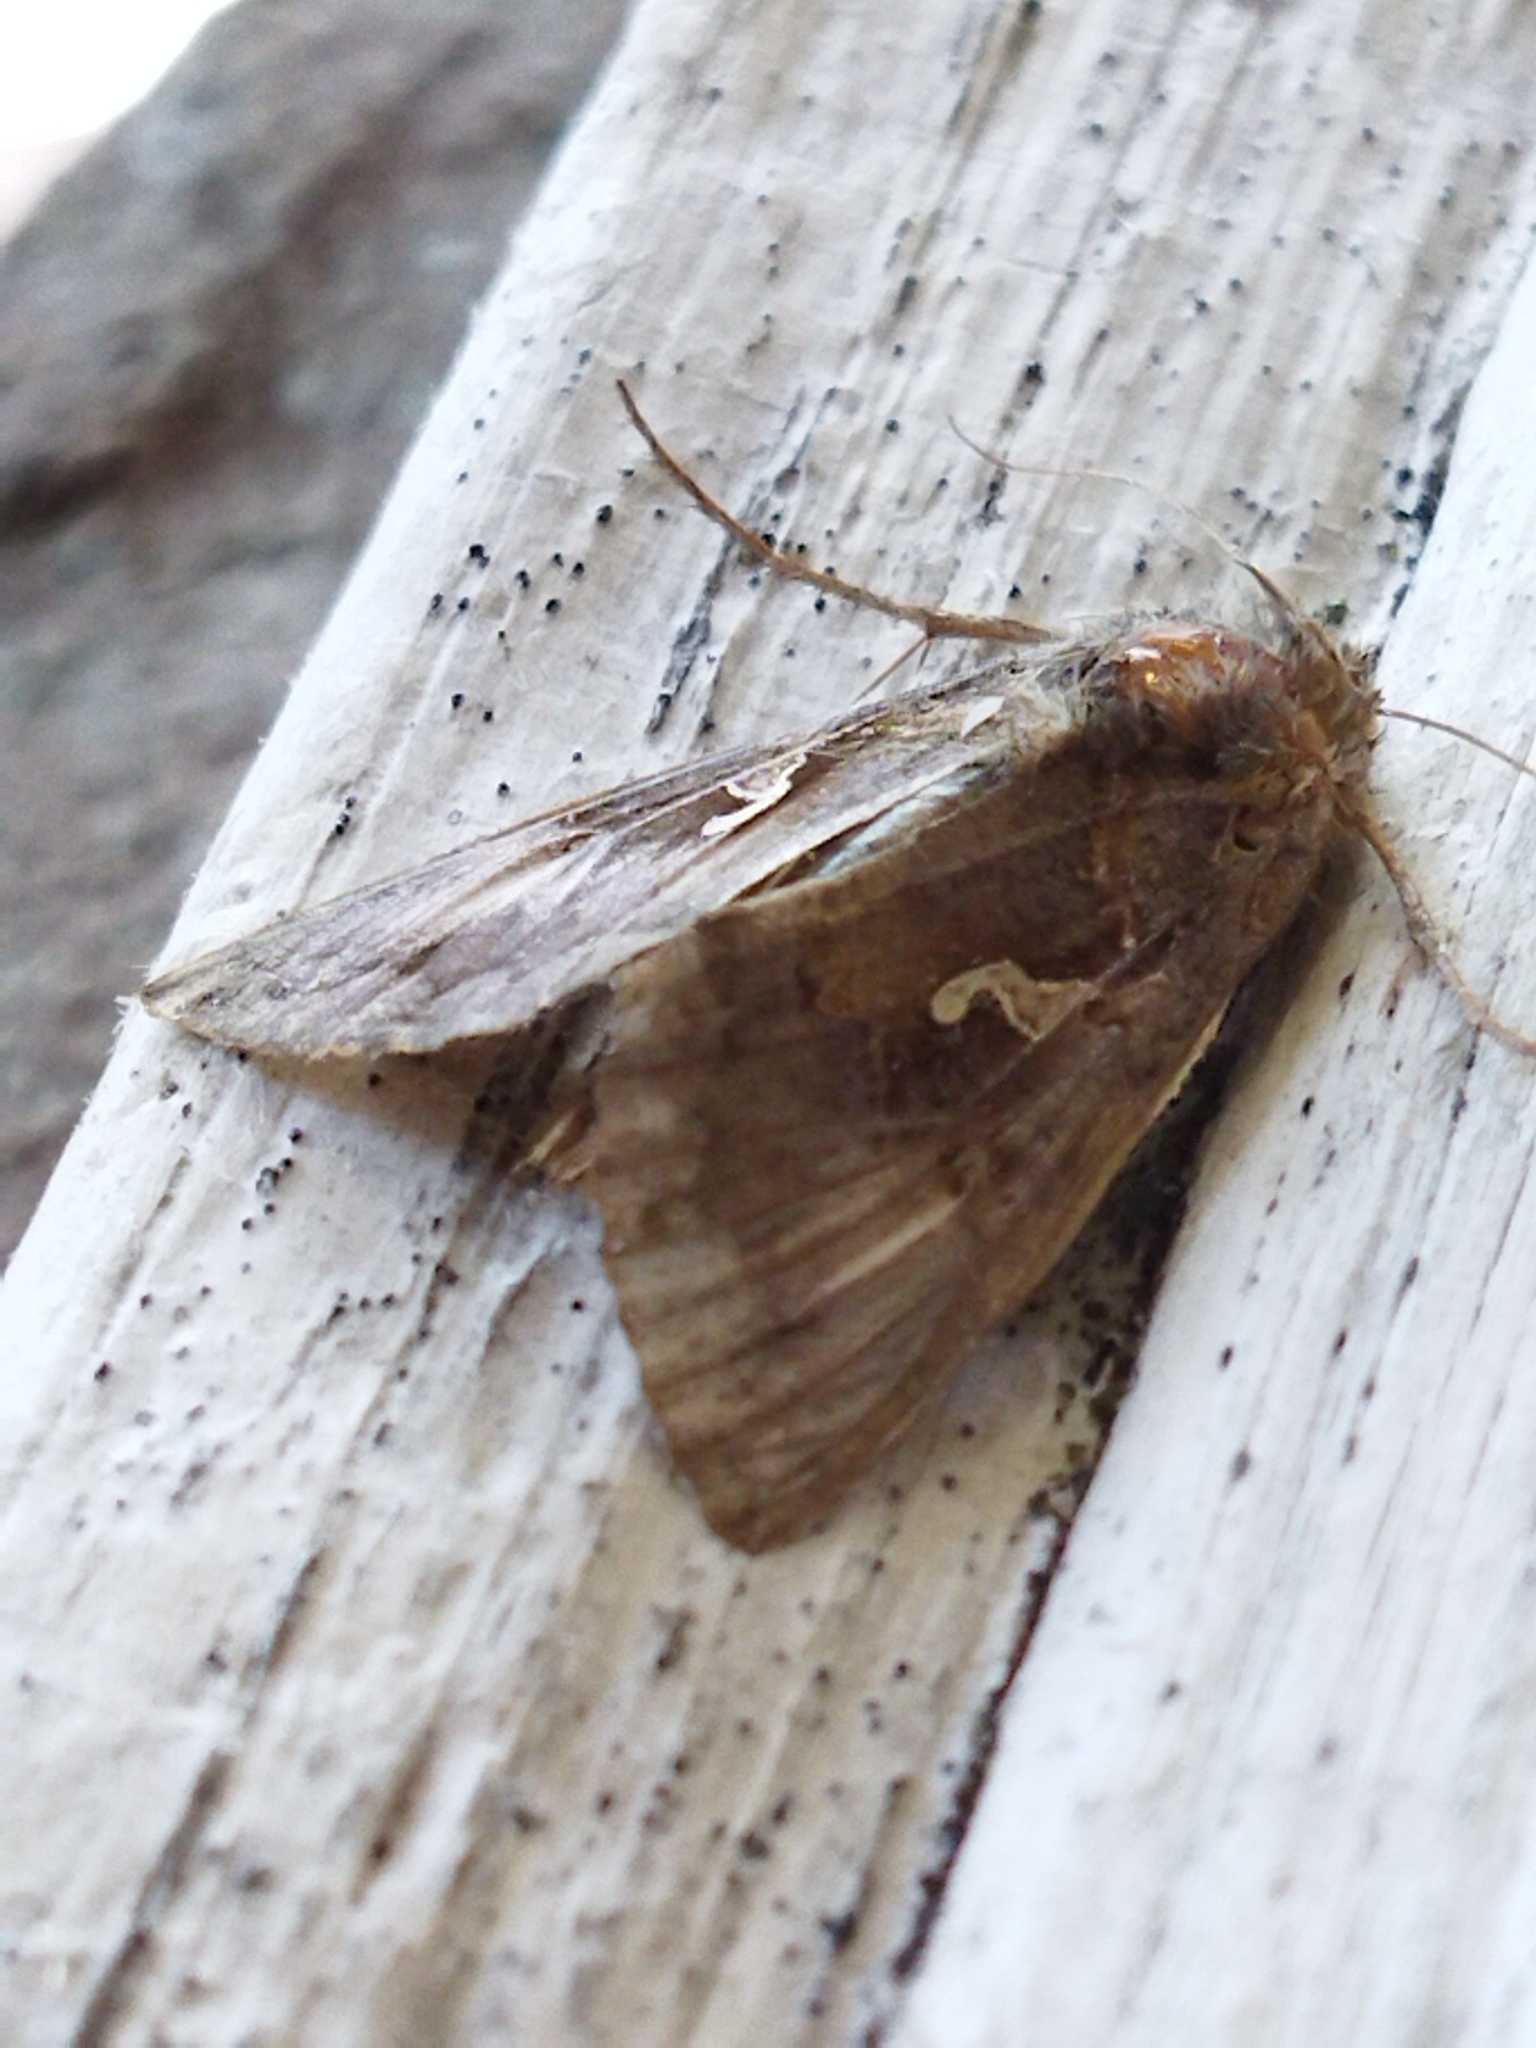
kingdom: Animalia
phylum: Arthropoda
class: Insecta
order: Lepidoptera
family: Noctuidae
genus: Autographa
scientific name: Autographa gamma
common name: Silver y
